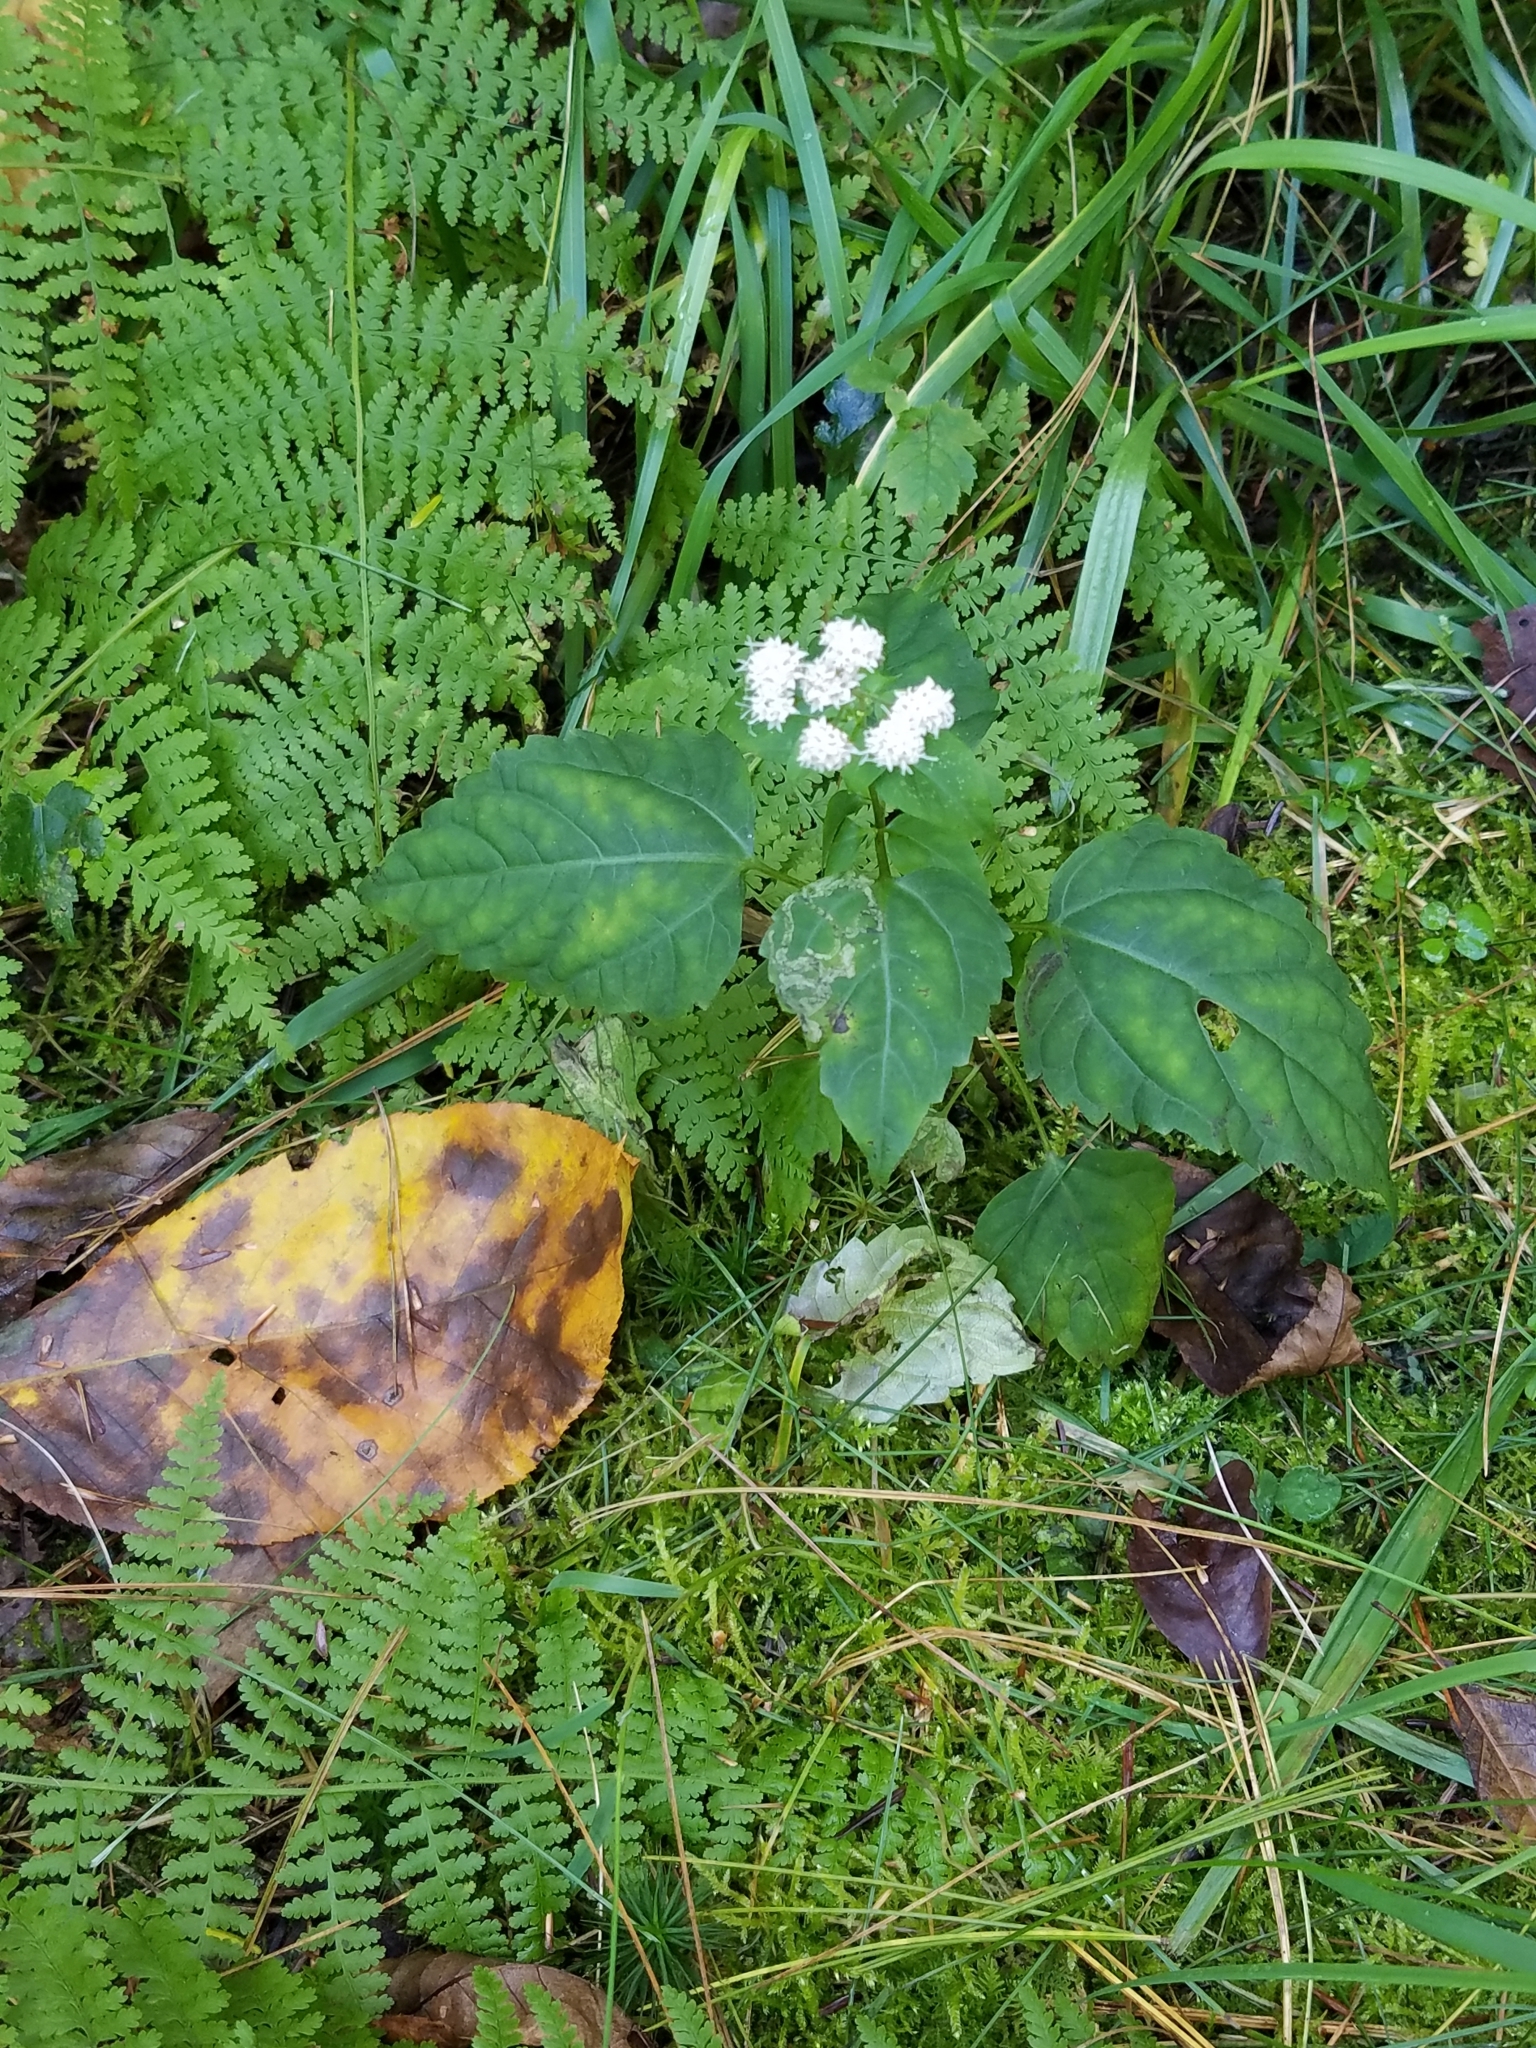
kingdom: Plantae
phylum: Tracheophyta
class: Magnoliopsida
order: Asterales
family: Asteraceae
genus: Ageratina
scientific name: Ageratina altissima
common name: White snakeroot
